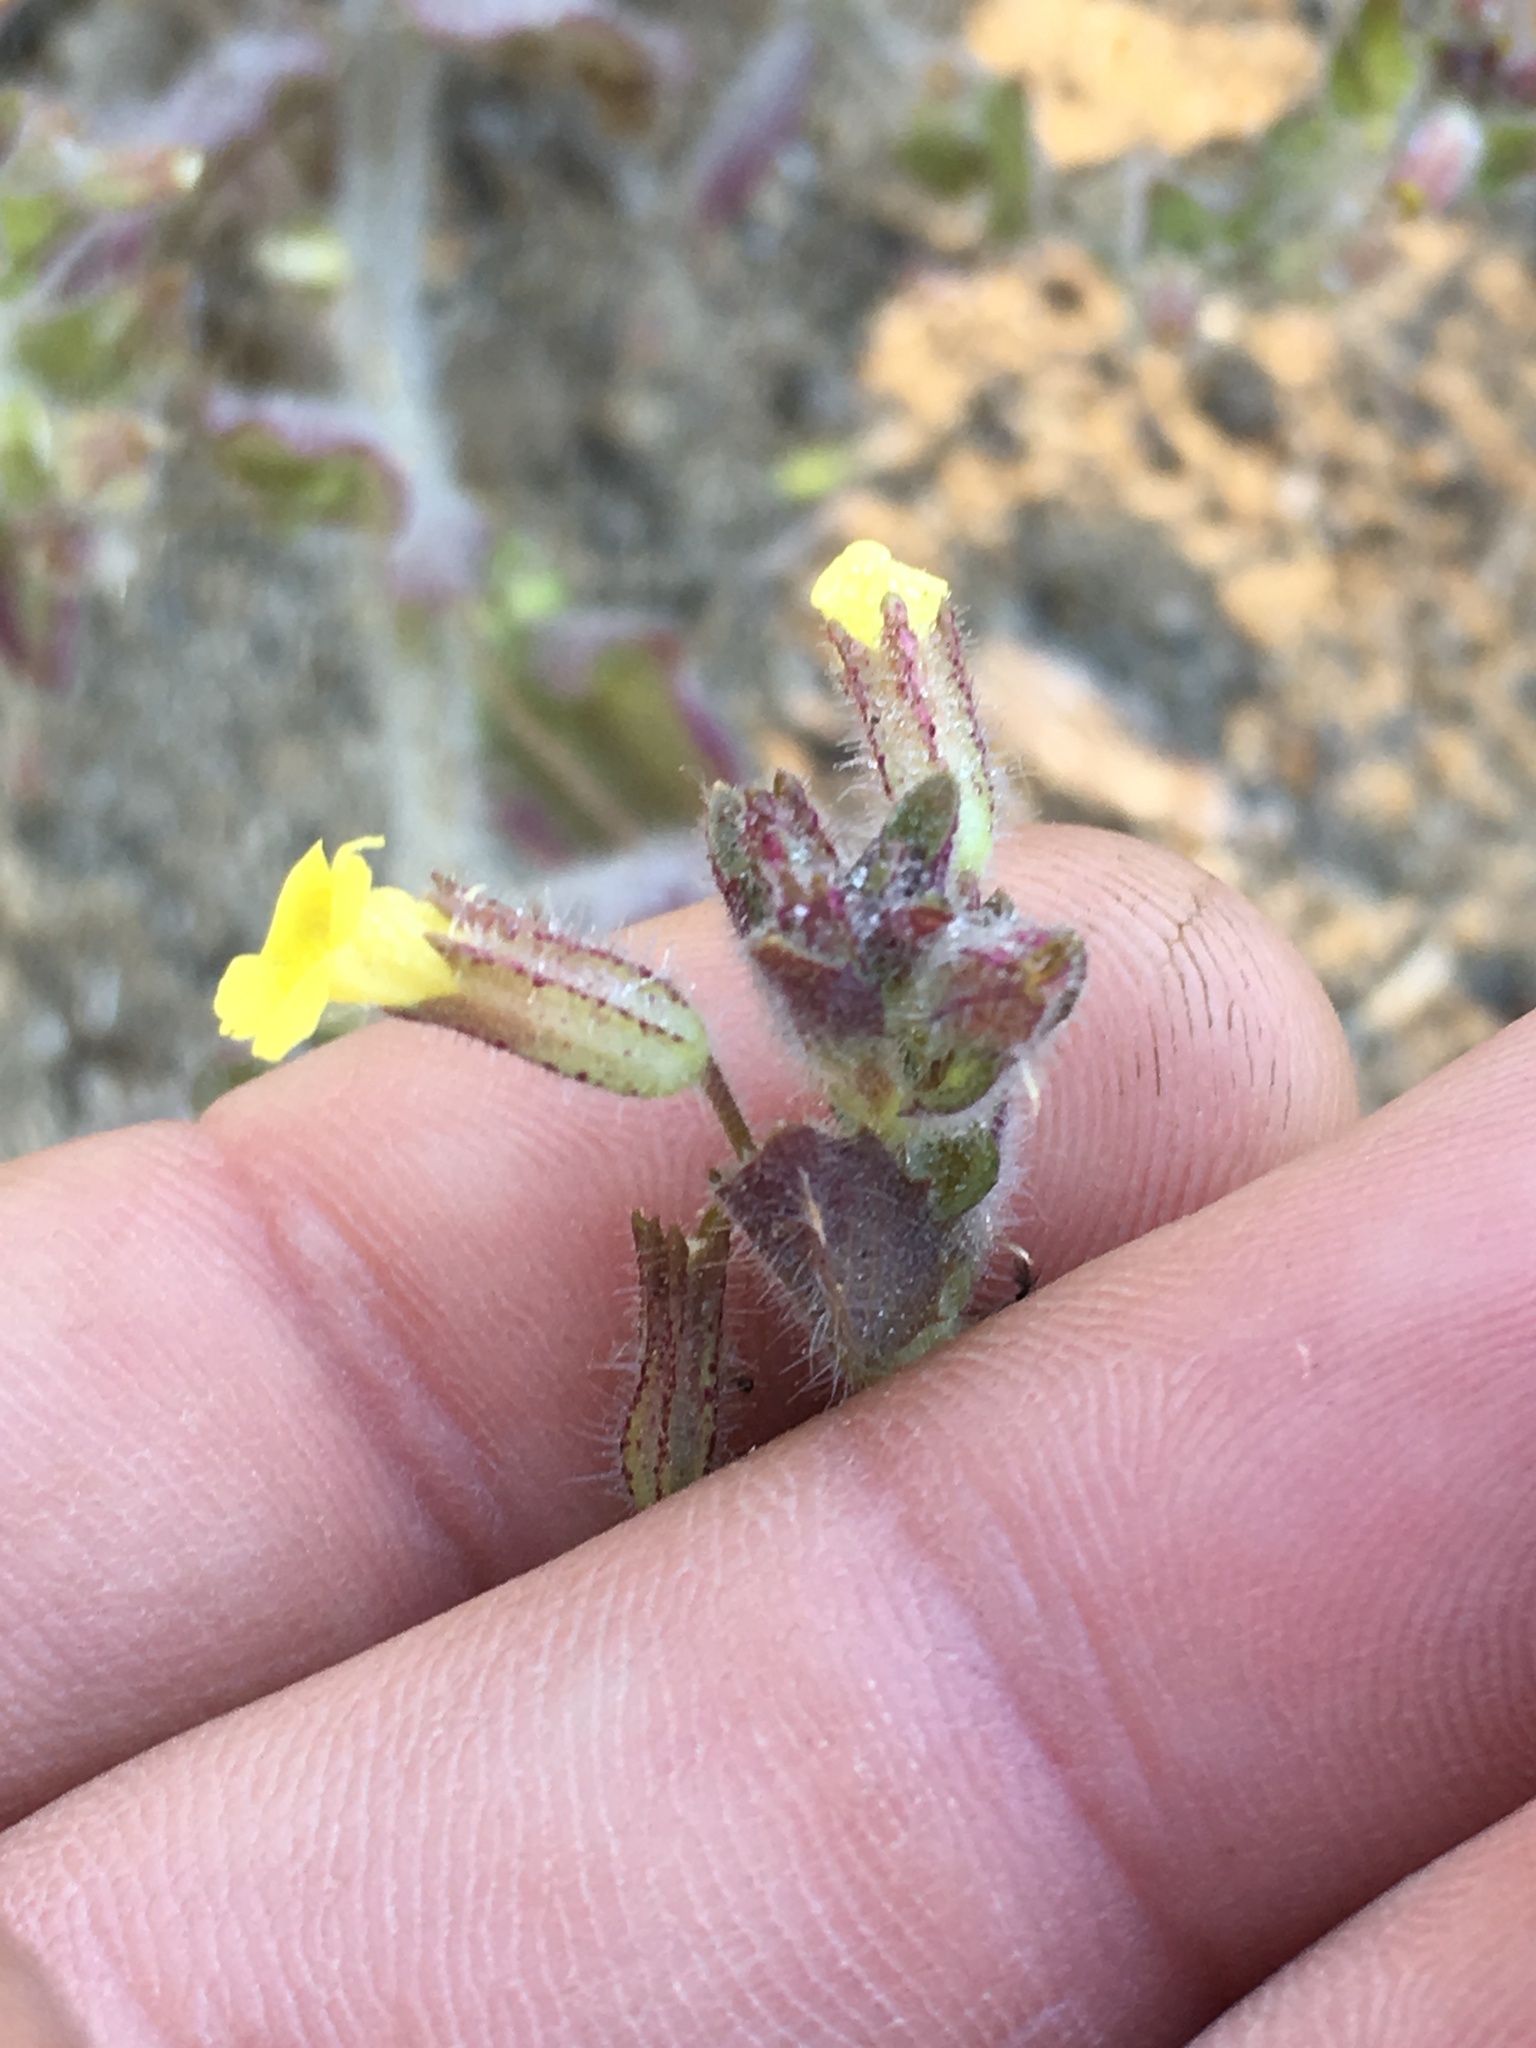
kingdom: Plantae
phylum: Tracheophyta
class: Magnoliopsida
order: Lamiales
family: Phrymaceae
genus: Erythranthe
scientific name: Erythranthe floribunda
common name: Floriferous monkeyflower
